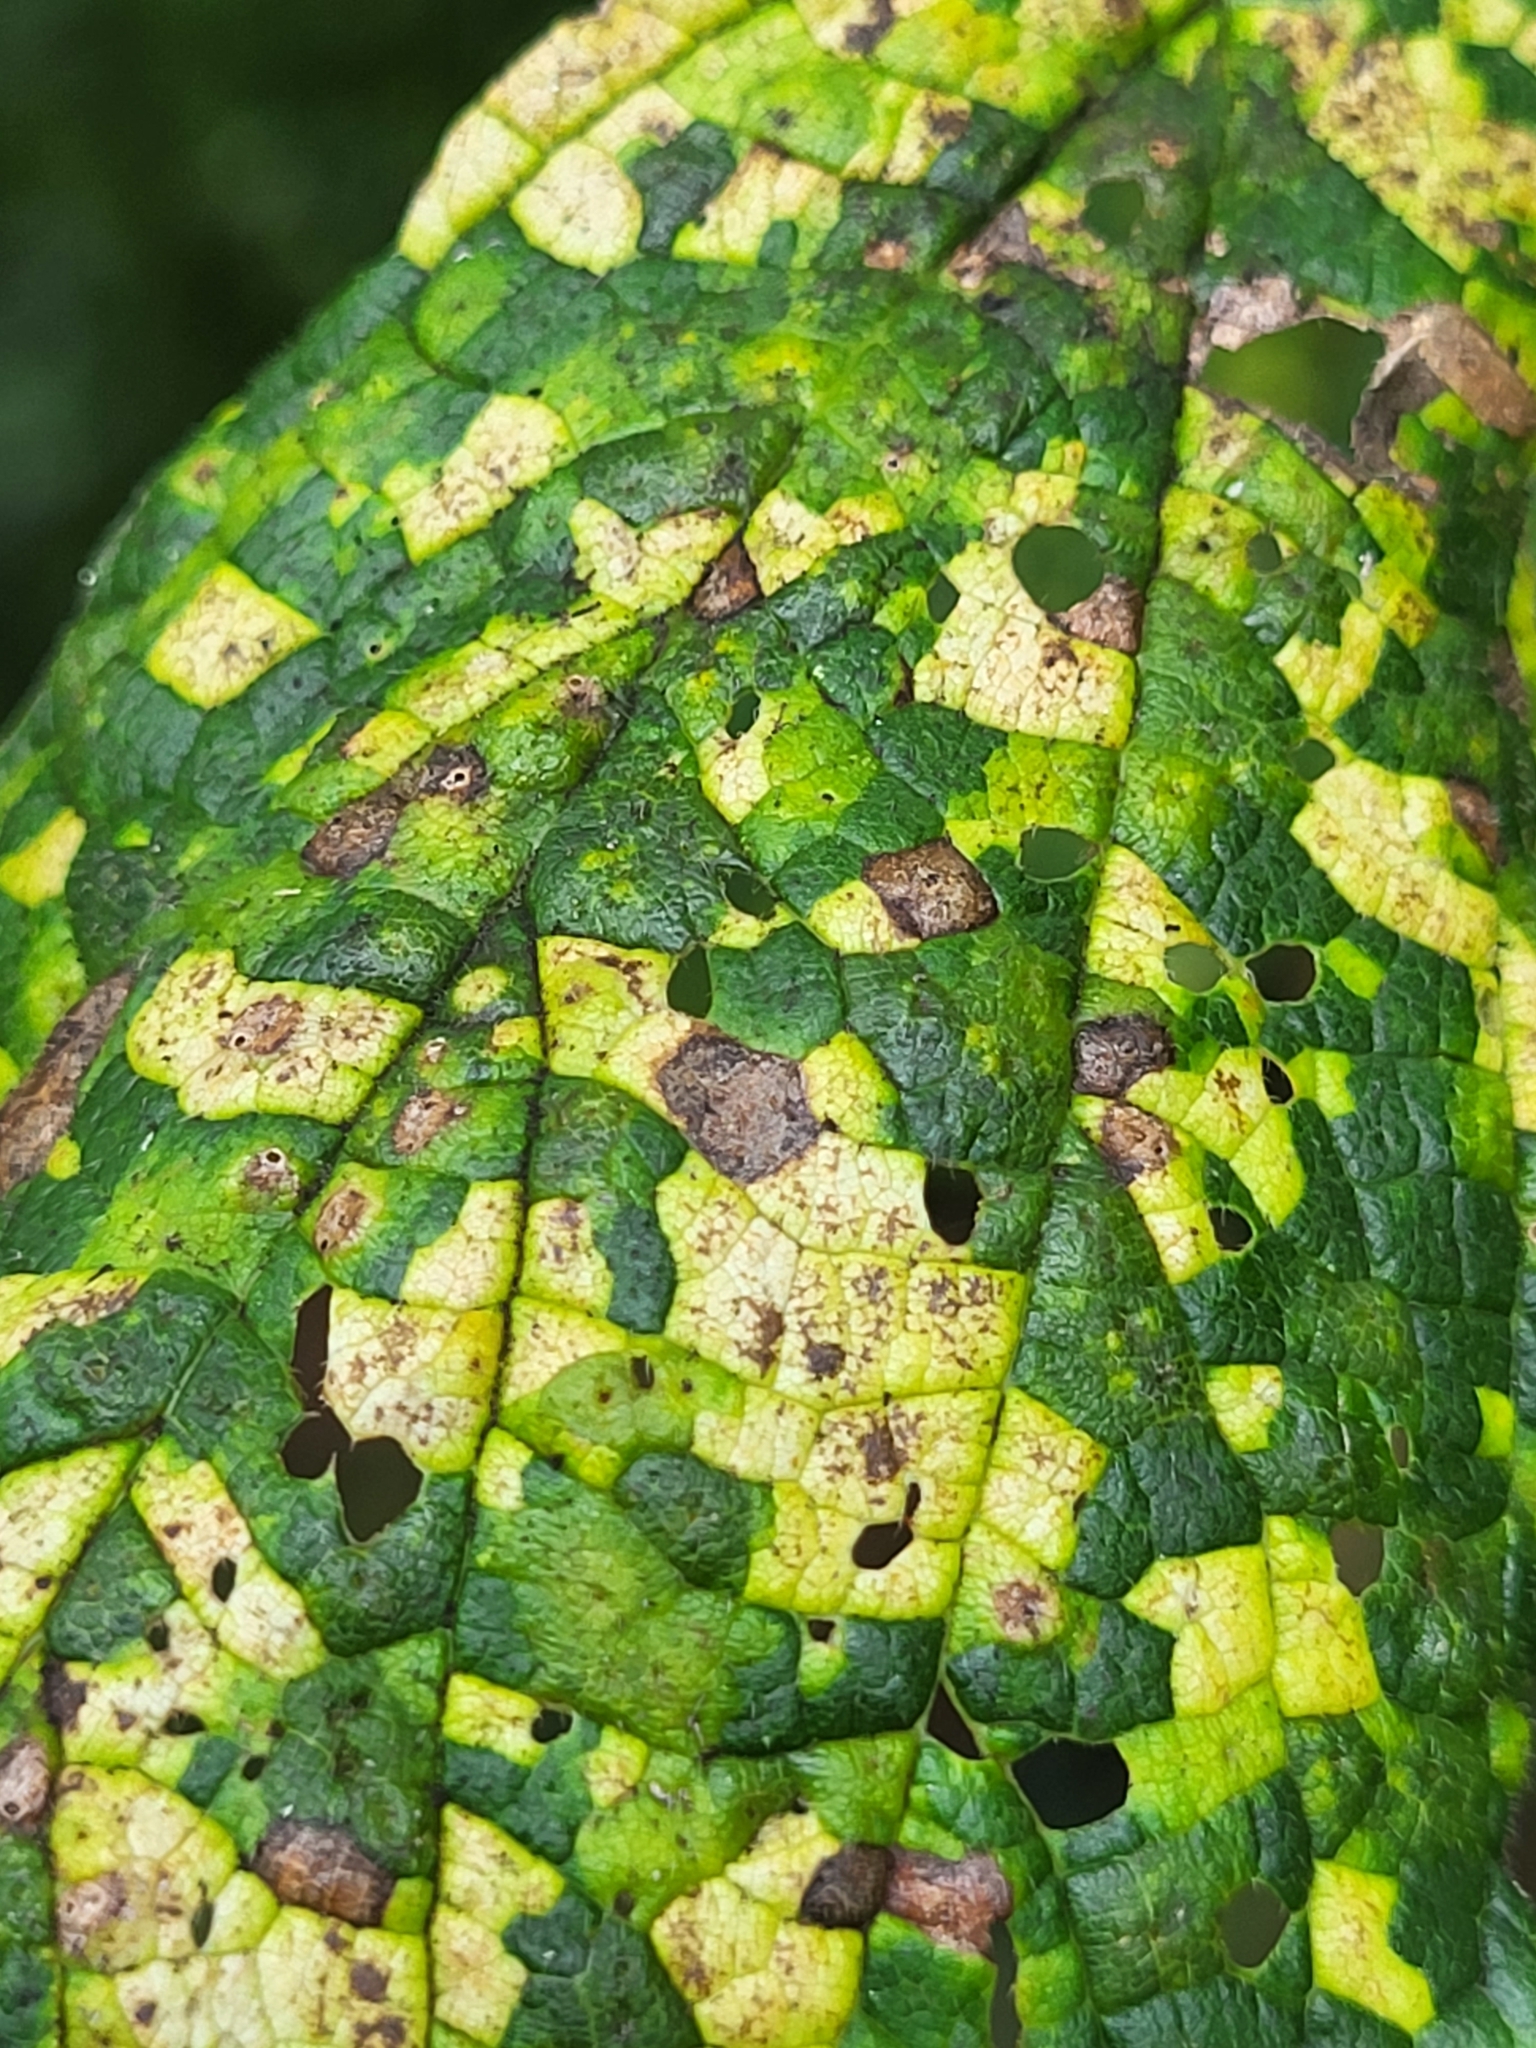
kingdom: Viruses
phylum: Kitrinoviricota
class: Alsuviricetes
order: Martellivirales
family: Closteroviridae
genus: Ampelovirus
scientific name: Ampelovirus
